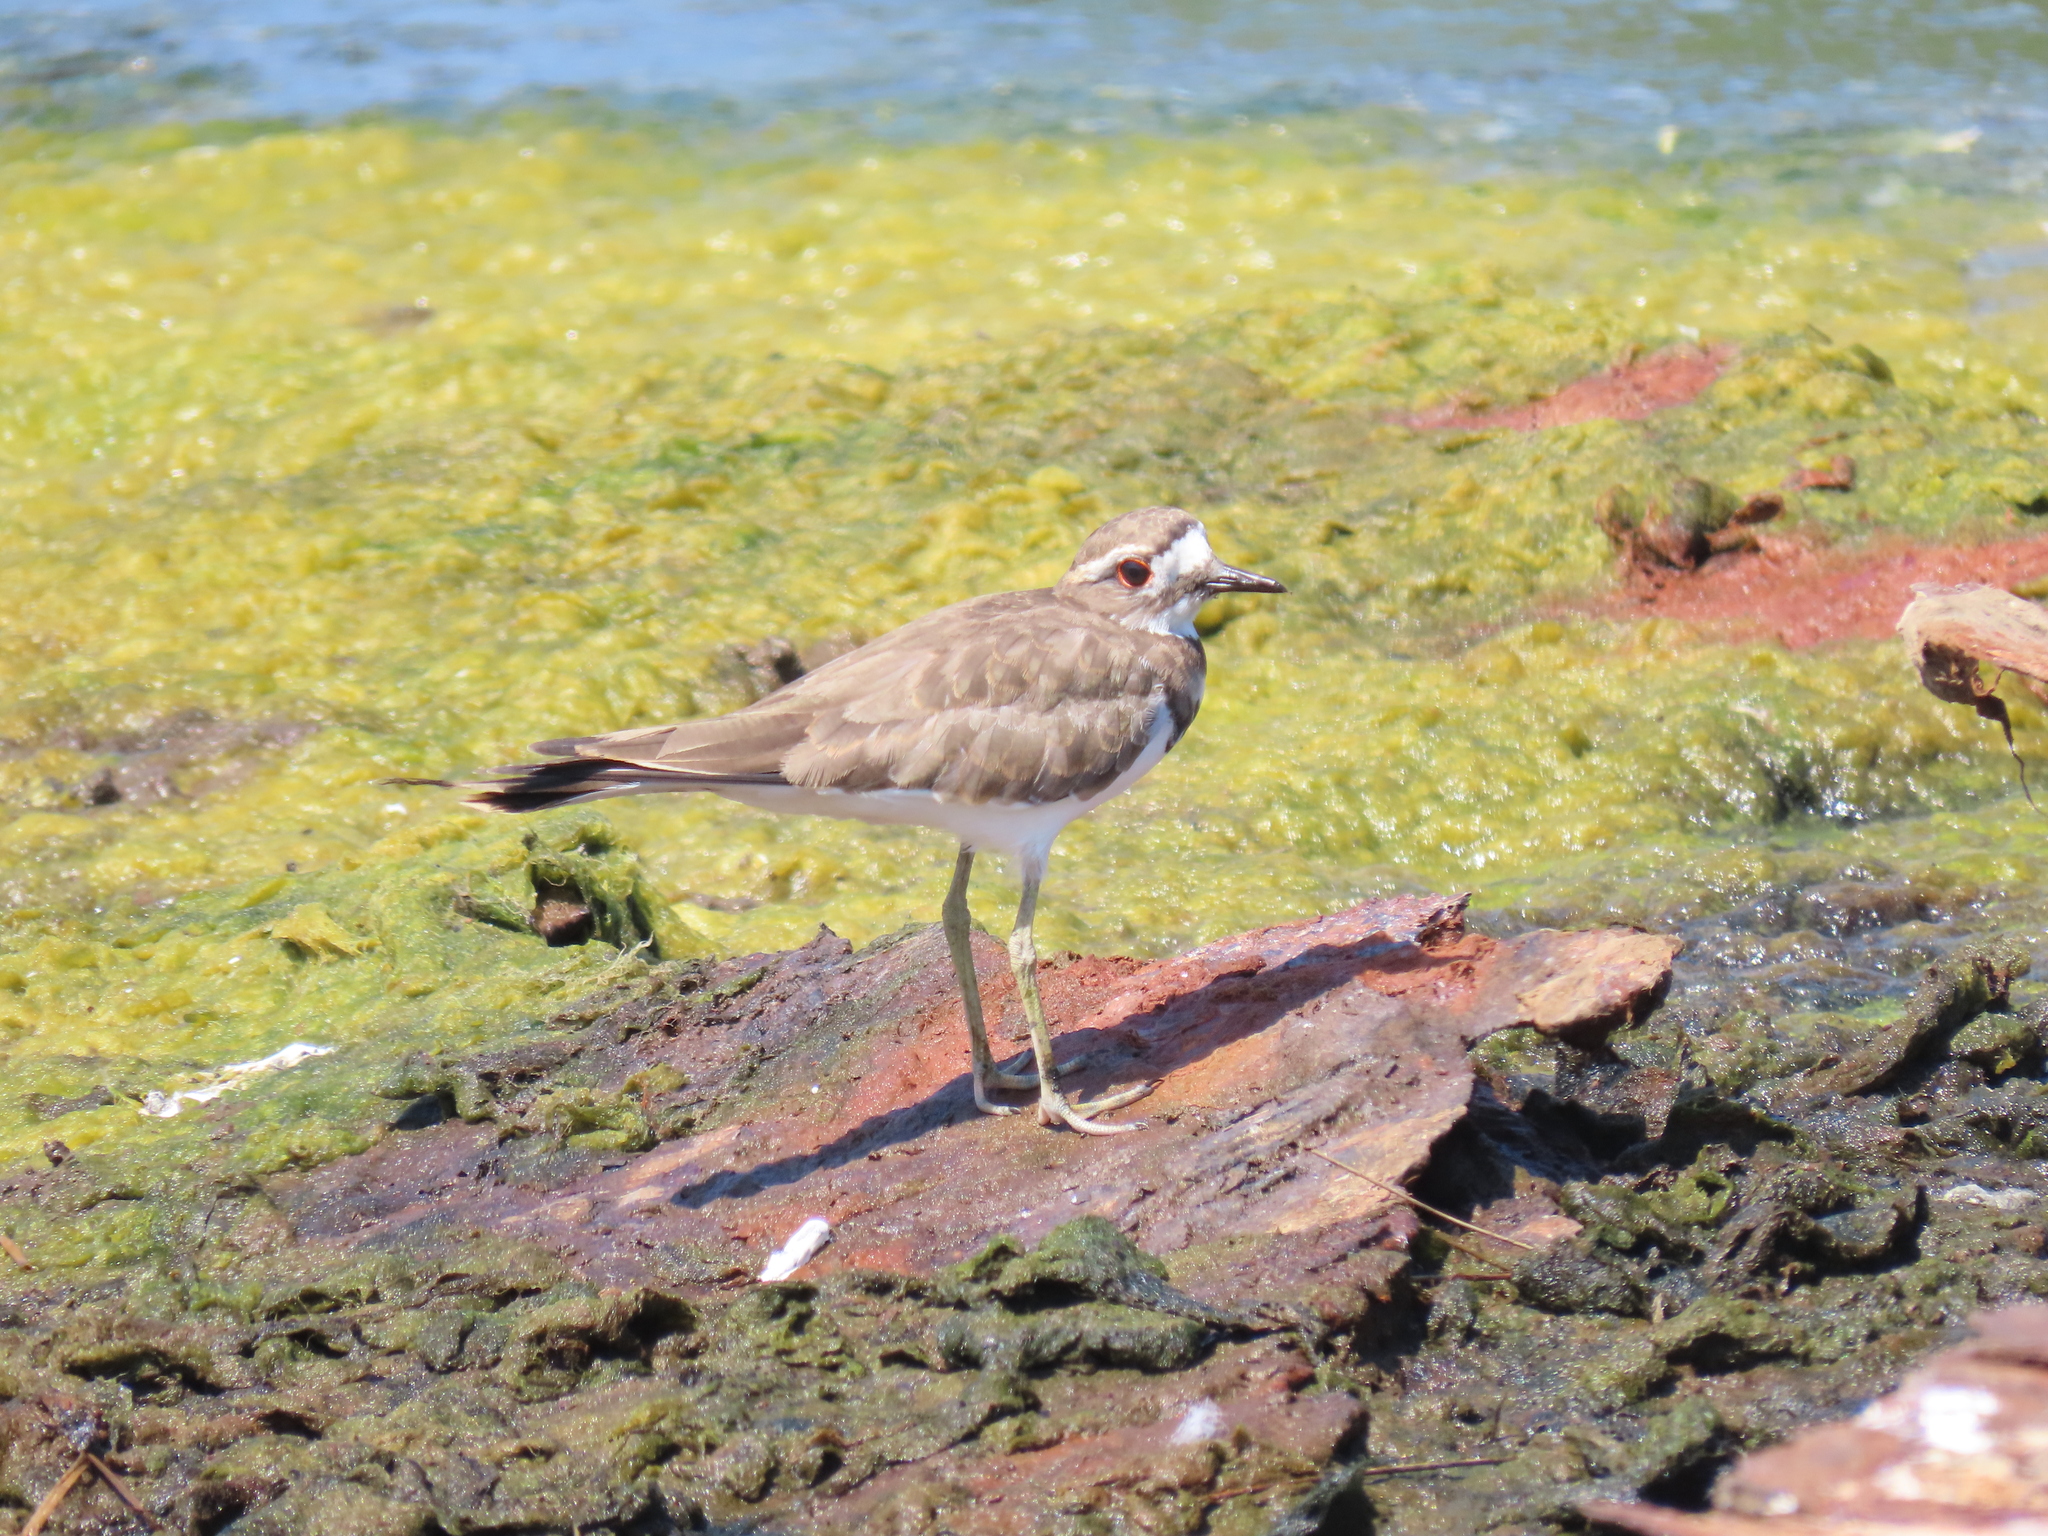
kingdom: Animalia
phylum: Chordata
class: Aves
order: Charadriiformes
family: Charadriidae
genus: Charadrius
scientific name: Charadrius vociferus
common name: Killdeer
